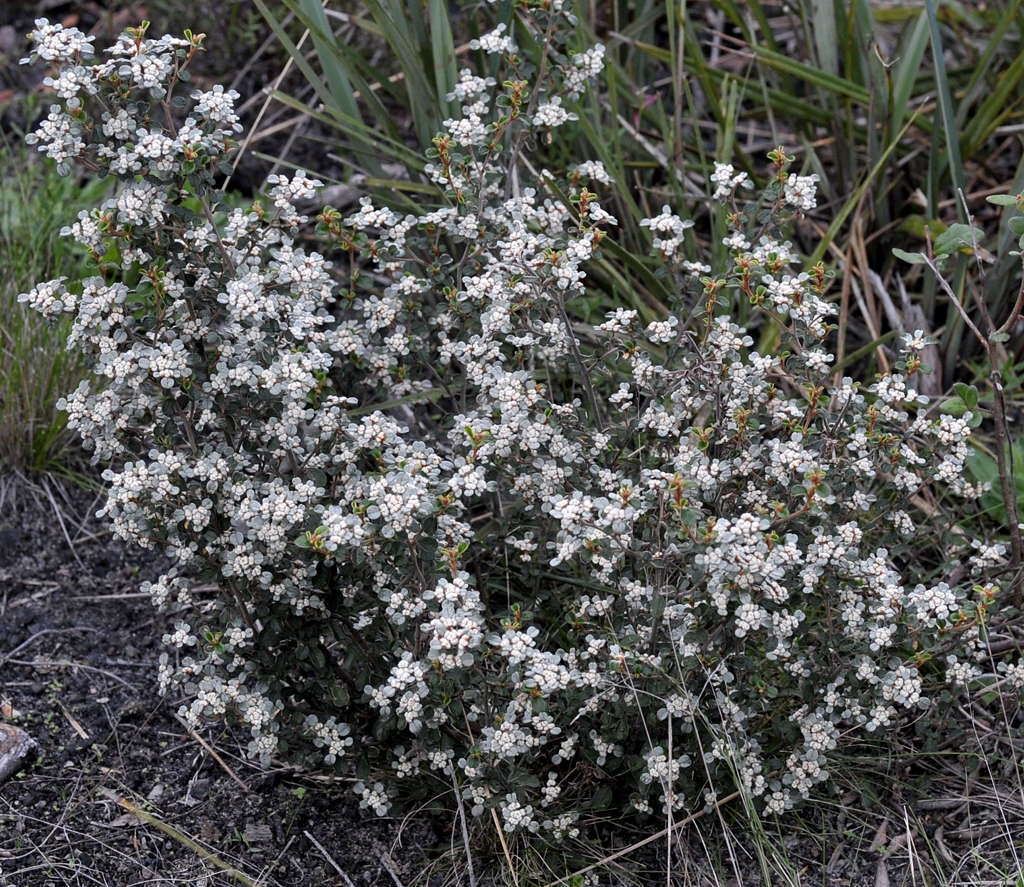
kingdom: Plantae
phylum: Tracheophyta
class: Magnoliopsida
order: Rosales
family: Rhamnaceae
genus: Spyridium
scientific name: Spyridium parvifolium
